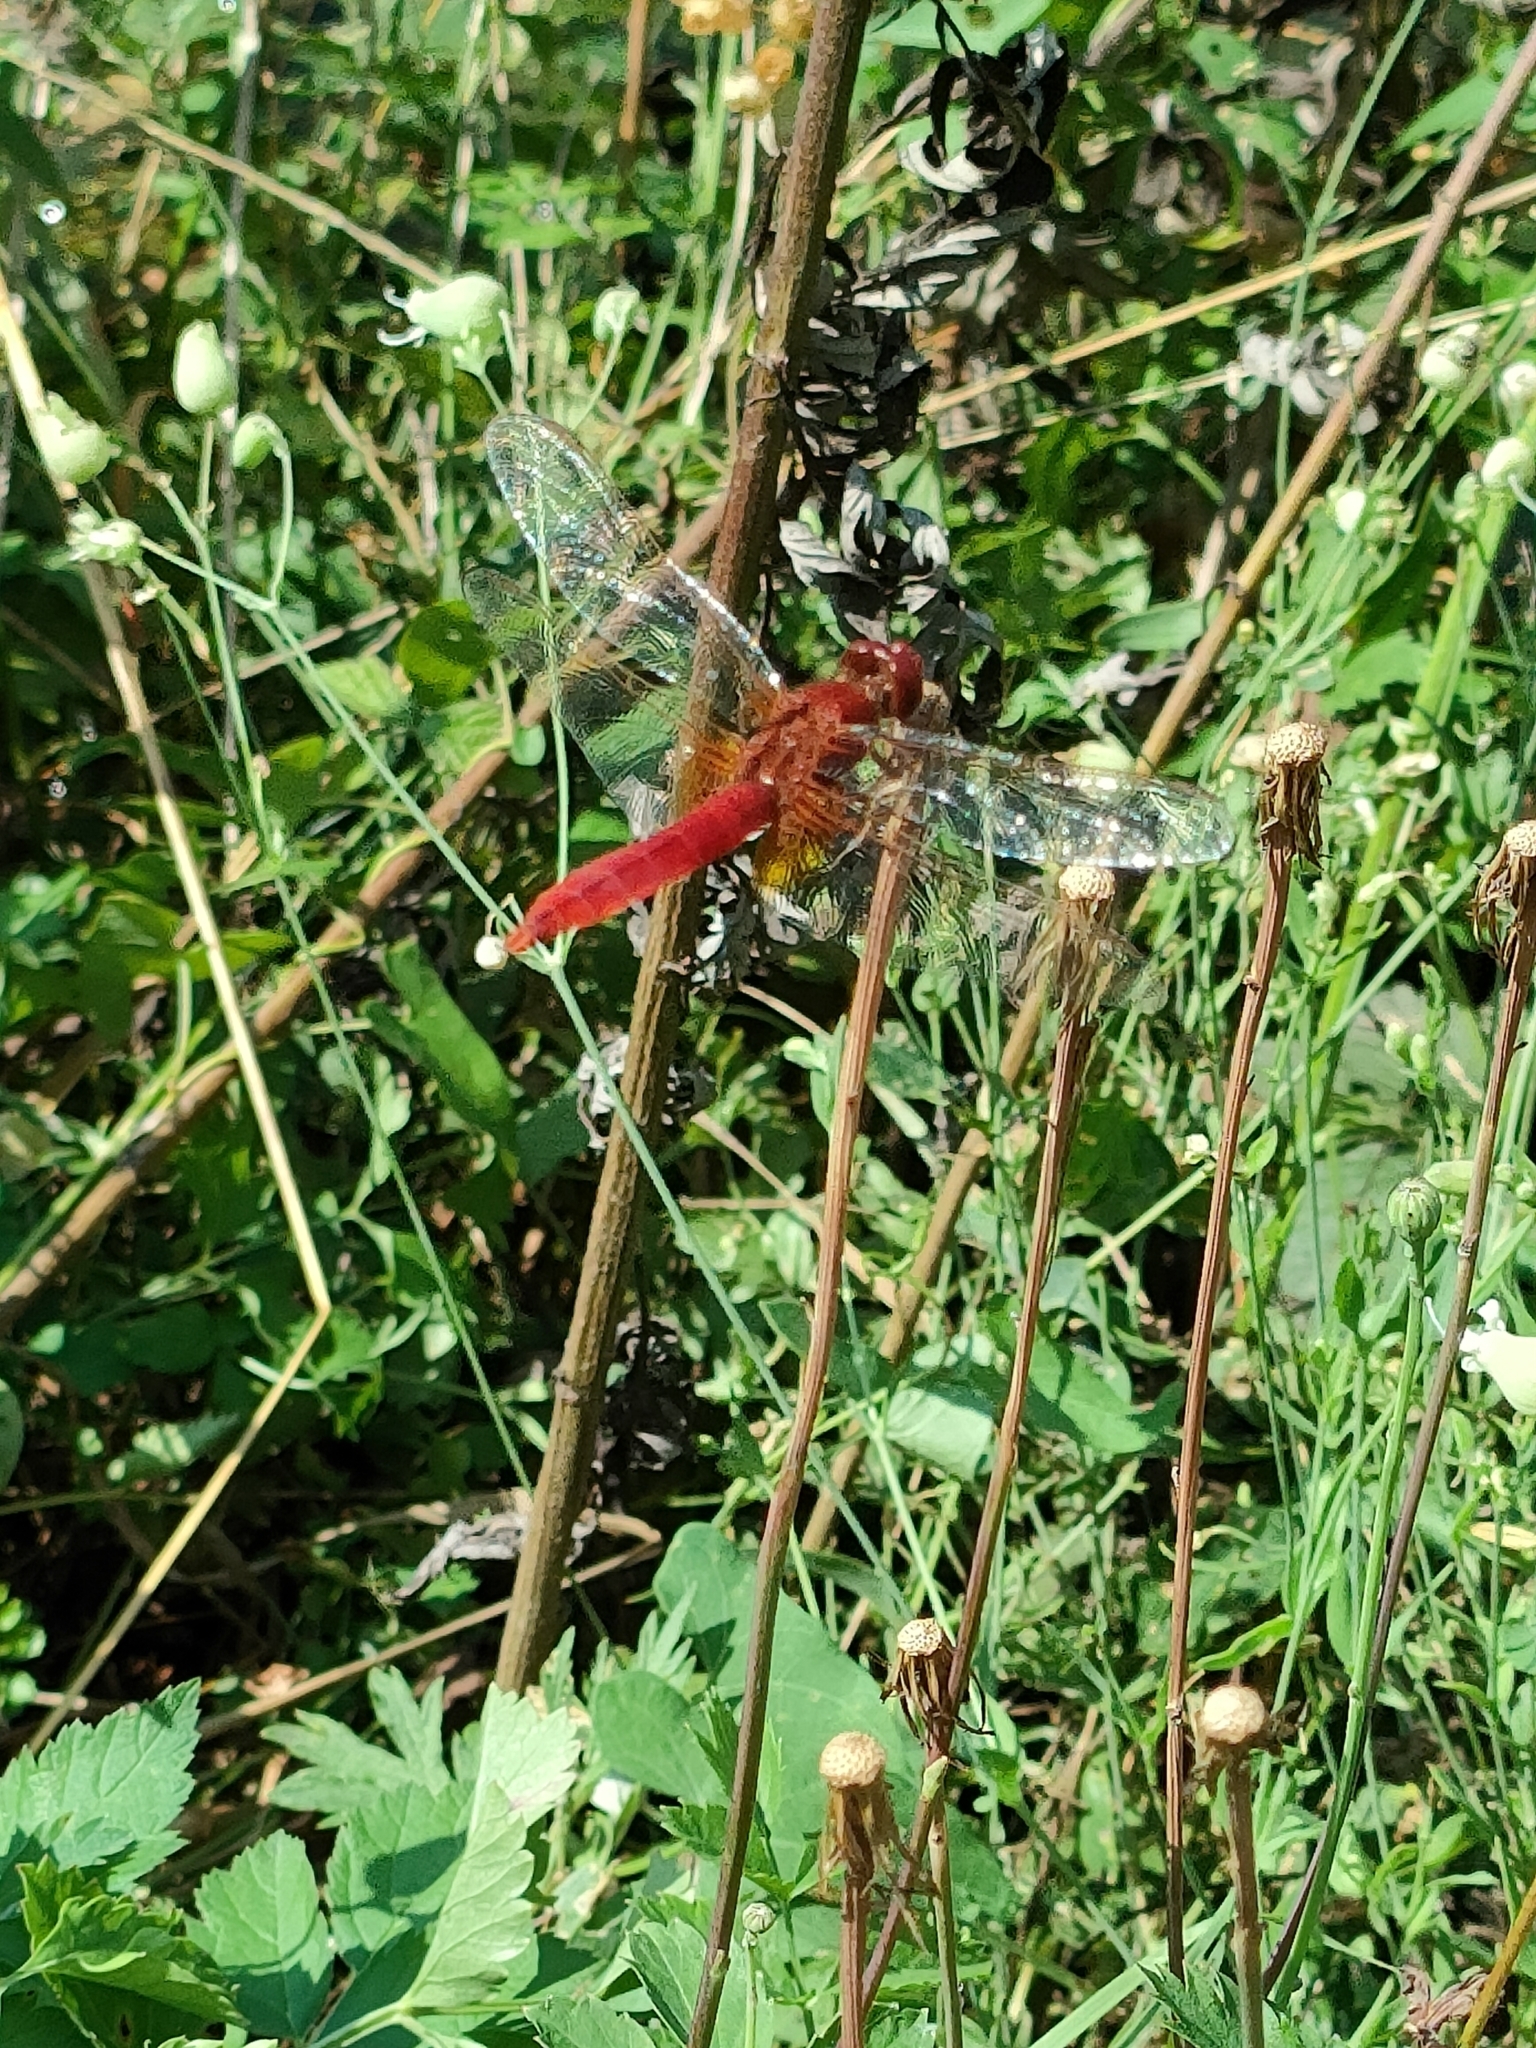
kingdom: Animalia
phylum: Arthropoda
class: Insecta
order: Odonata
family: Libellulidae
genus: Crocothemis
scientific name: Crocothemis erythraea
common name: Scarlet dragonfly
